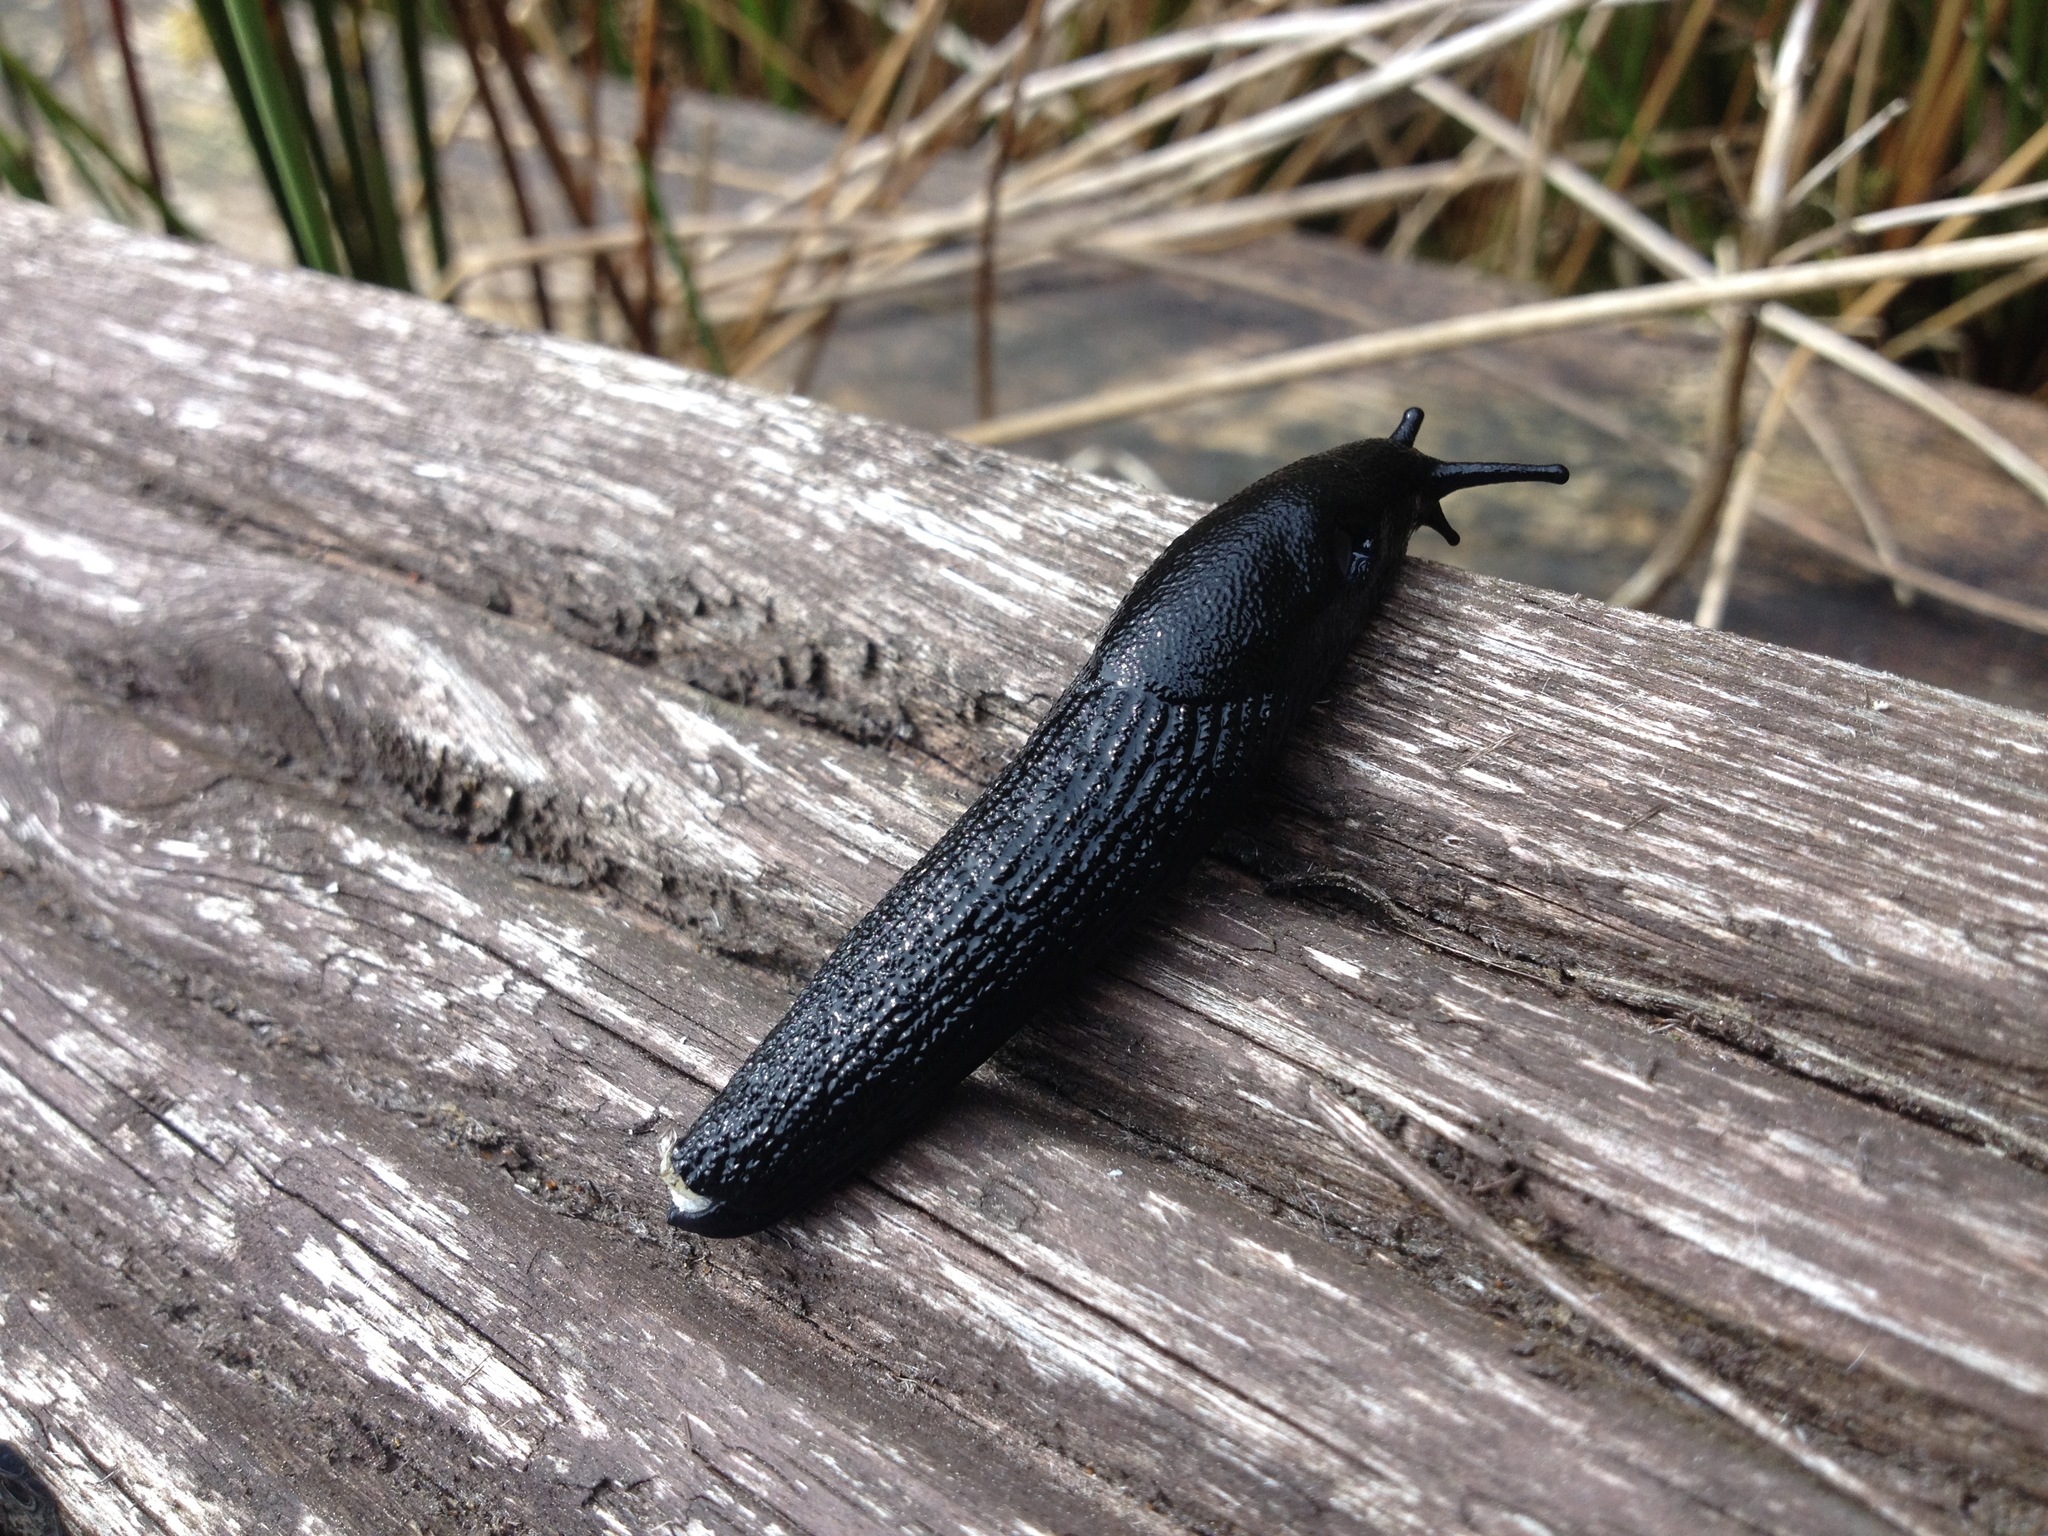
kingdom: Animalia
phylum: Mollusca
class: Gastropoda
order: Stylommatophora
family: Arionidae
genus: Arion
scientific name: Arion ater
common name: Black arion
